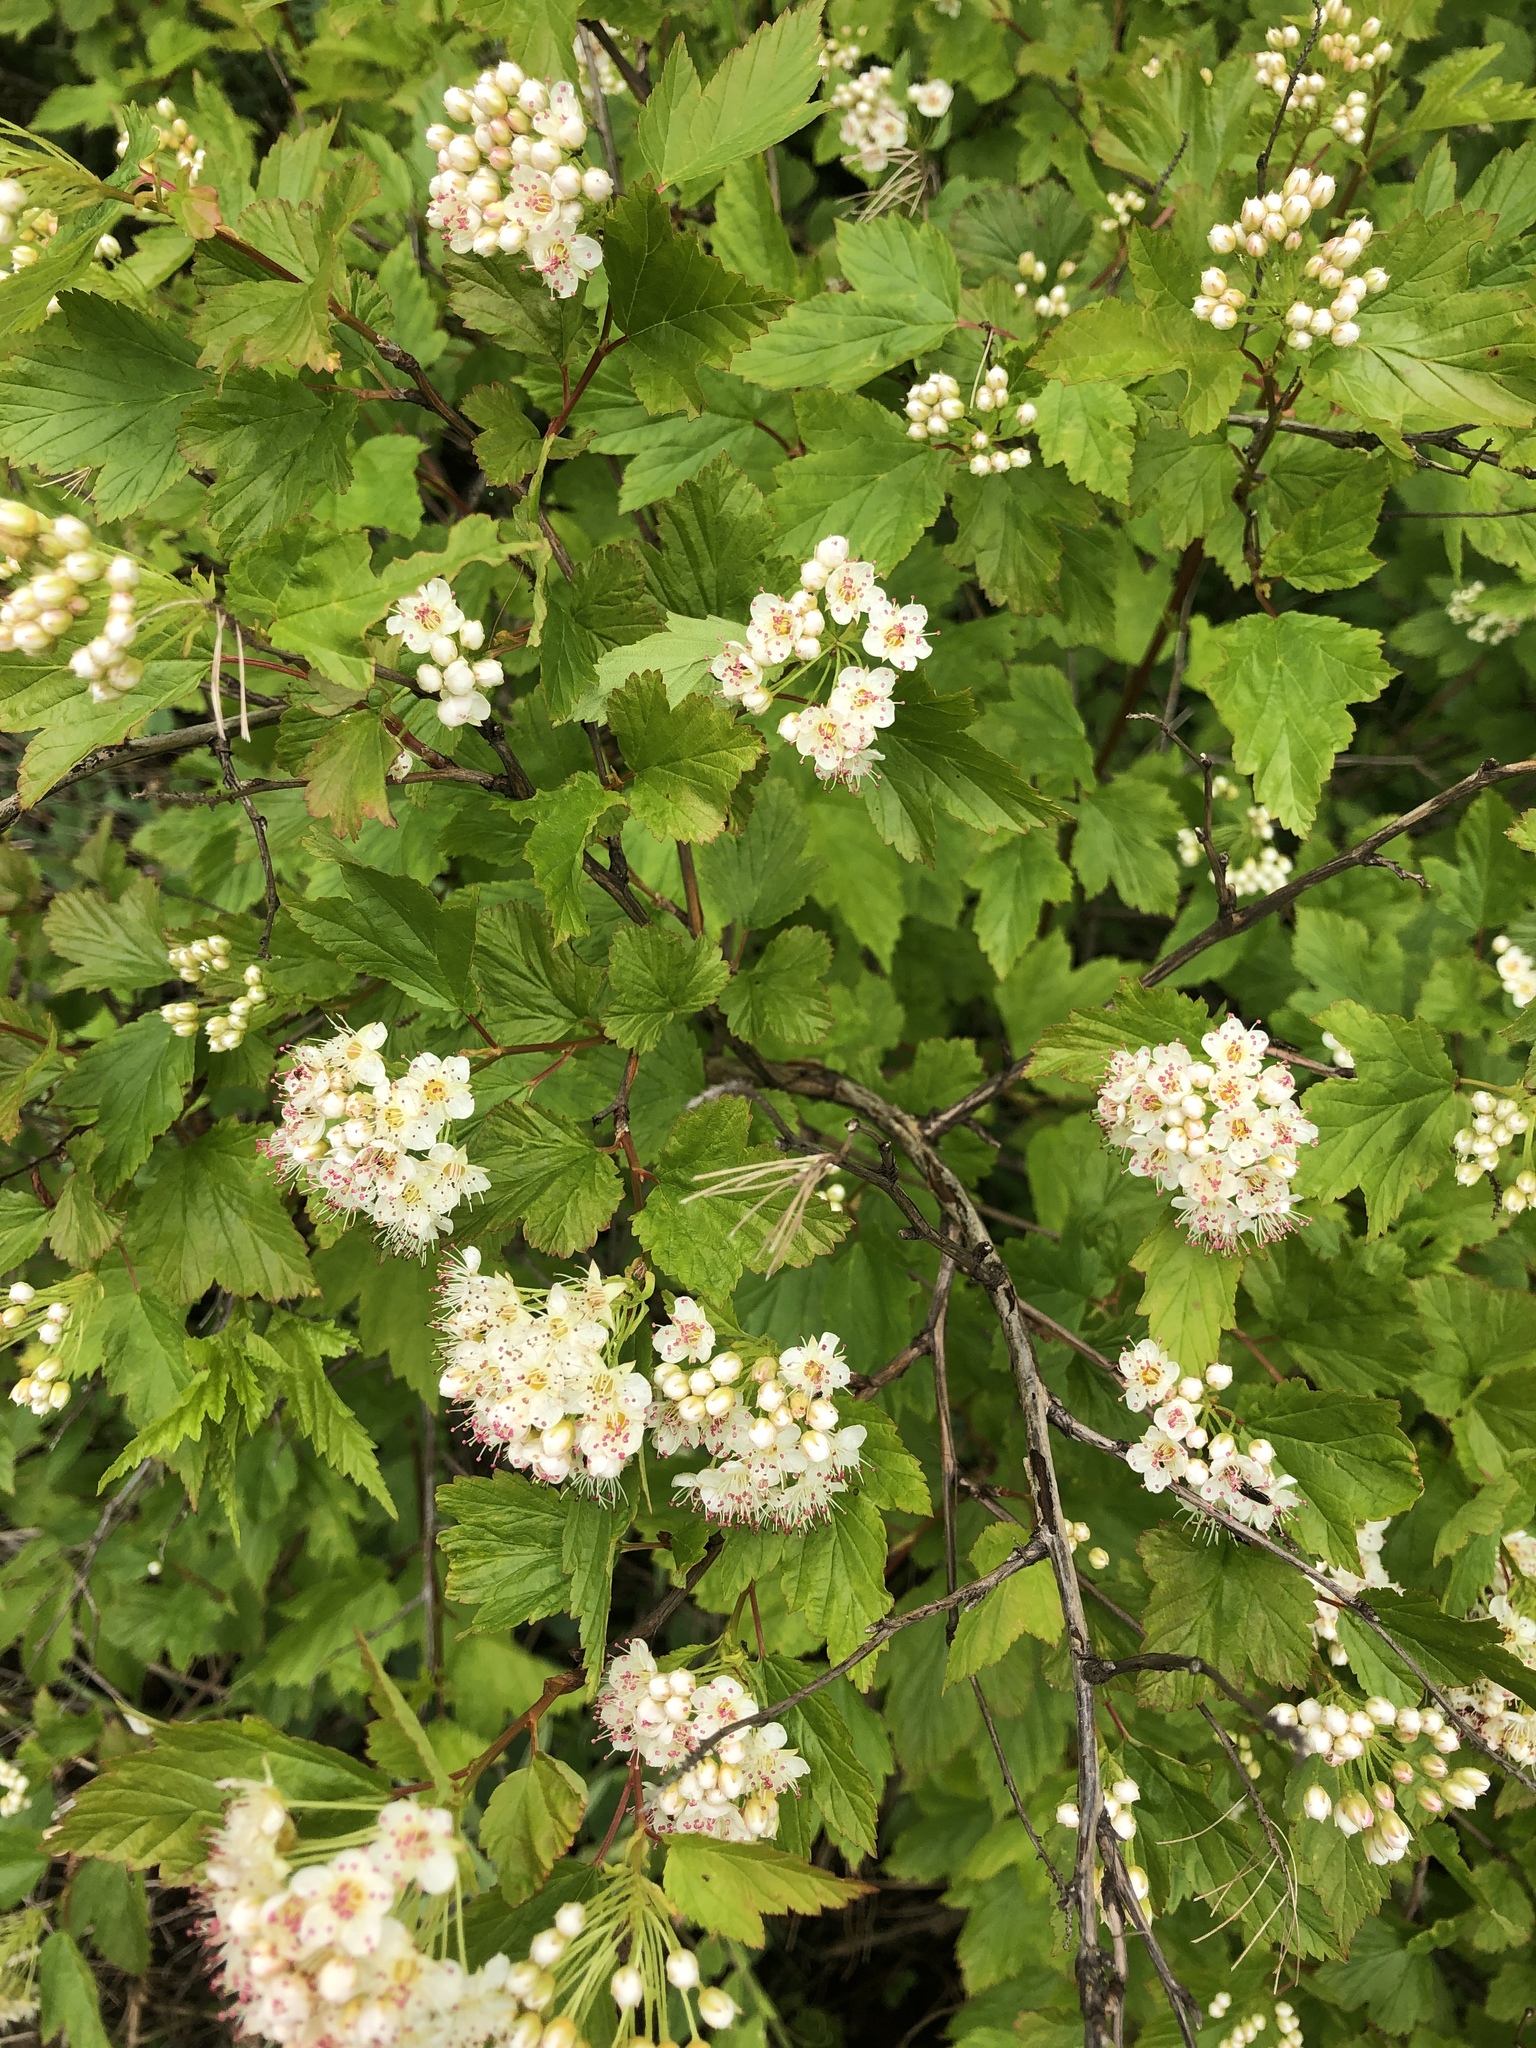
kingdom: Plantae
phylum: Tracheophyta
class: Magnoliopsida
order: Rosales
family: Rosaceae
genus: Physocarpus
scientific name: Physocarpus opulifolius
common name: Ninebark
